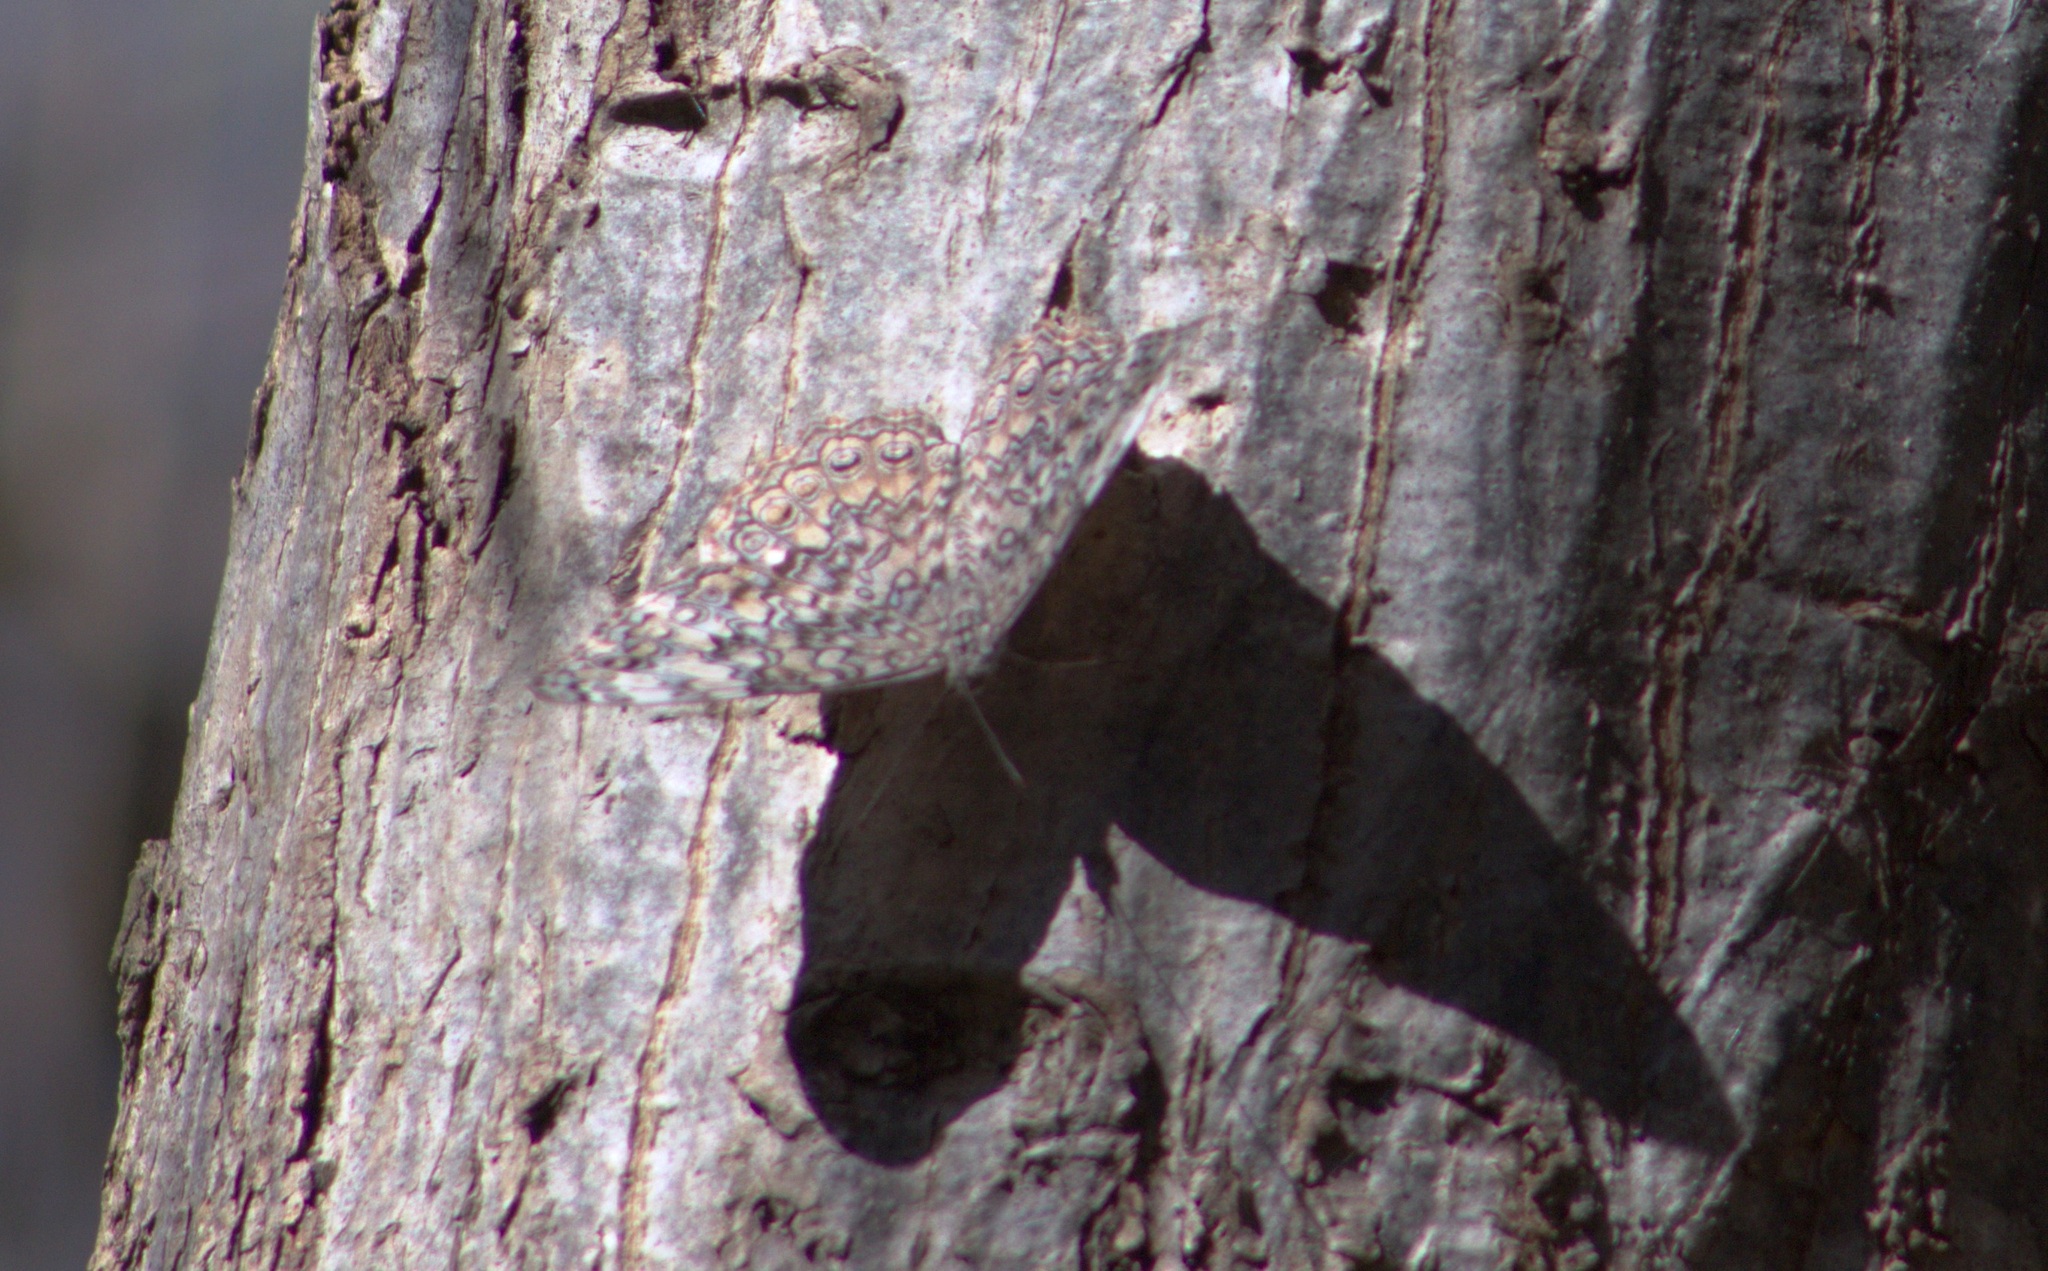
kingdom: Animalia
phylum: Arthropoda
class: Insecta
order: Lepidoptera
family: Nymphalidae
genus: Hamadryas
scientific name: Hamadryas februa
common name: Gray cracker
